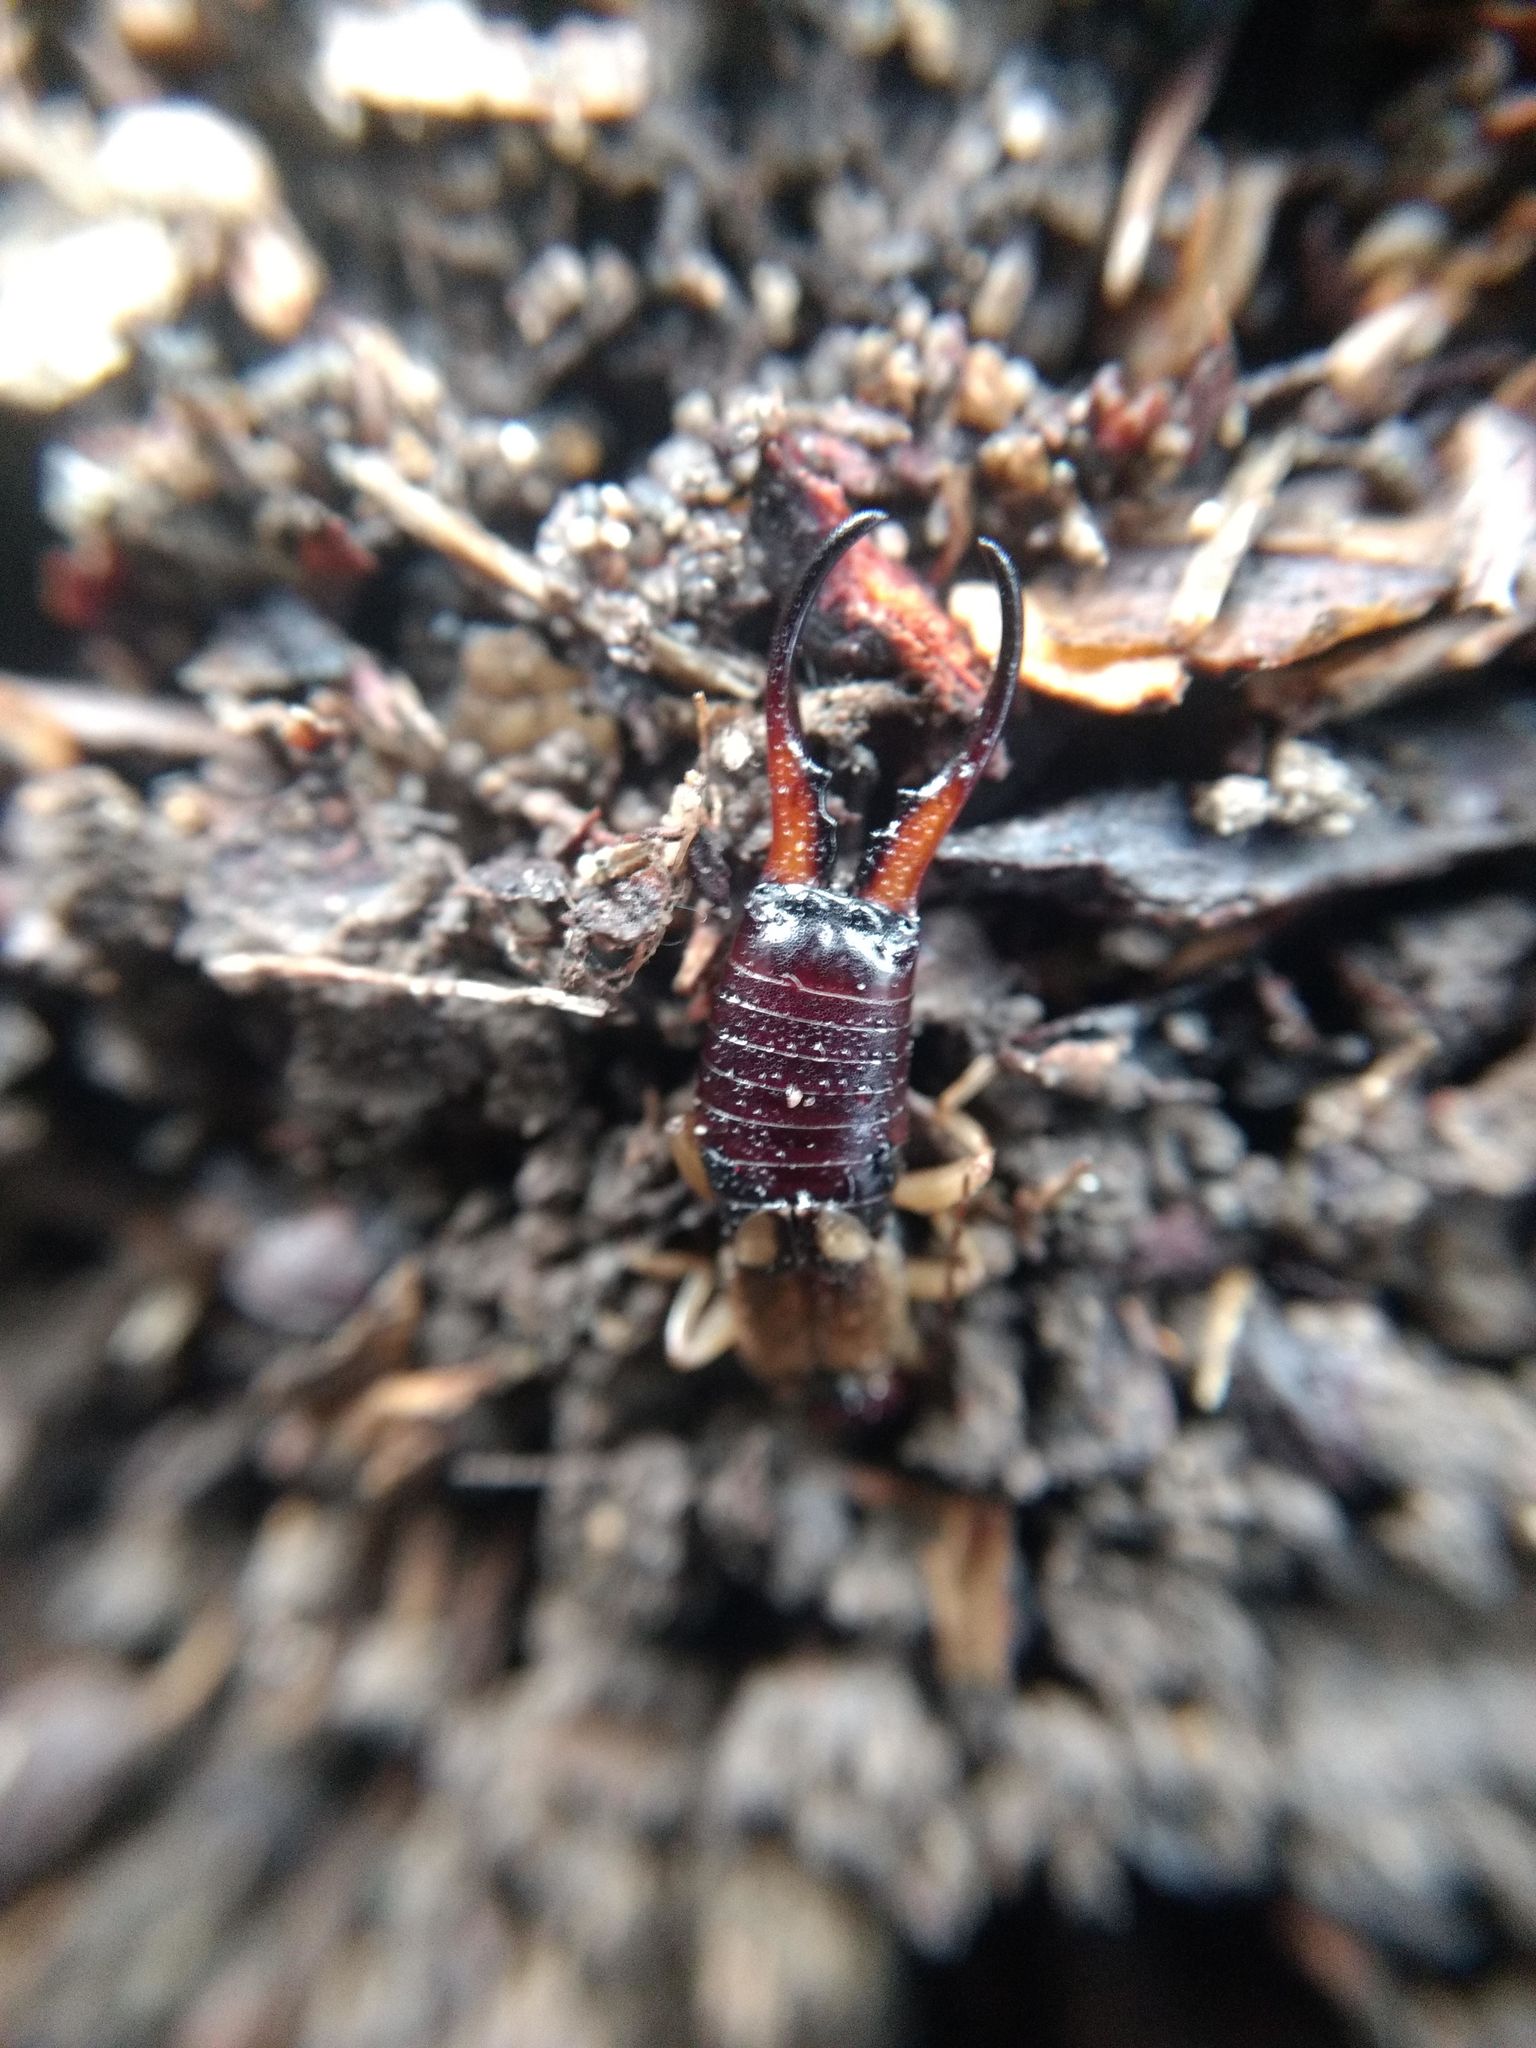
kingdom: Animalia
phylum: Arthropoda
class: Insecta
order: Dermaptera
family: Forficulidae
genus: Forficula
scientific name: Forficula
